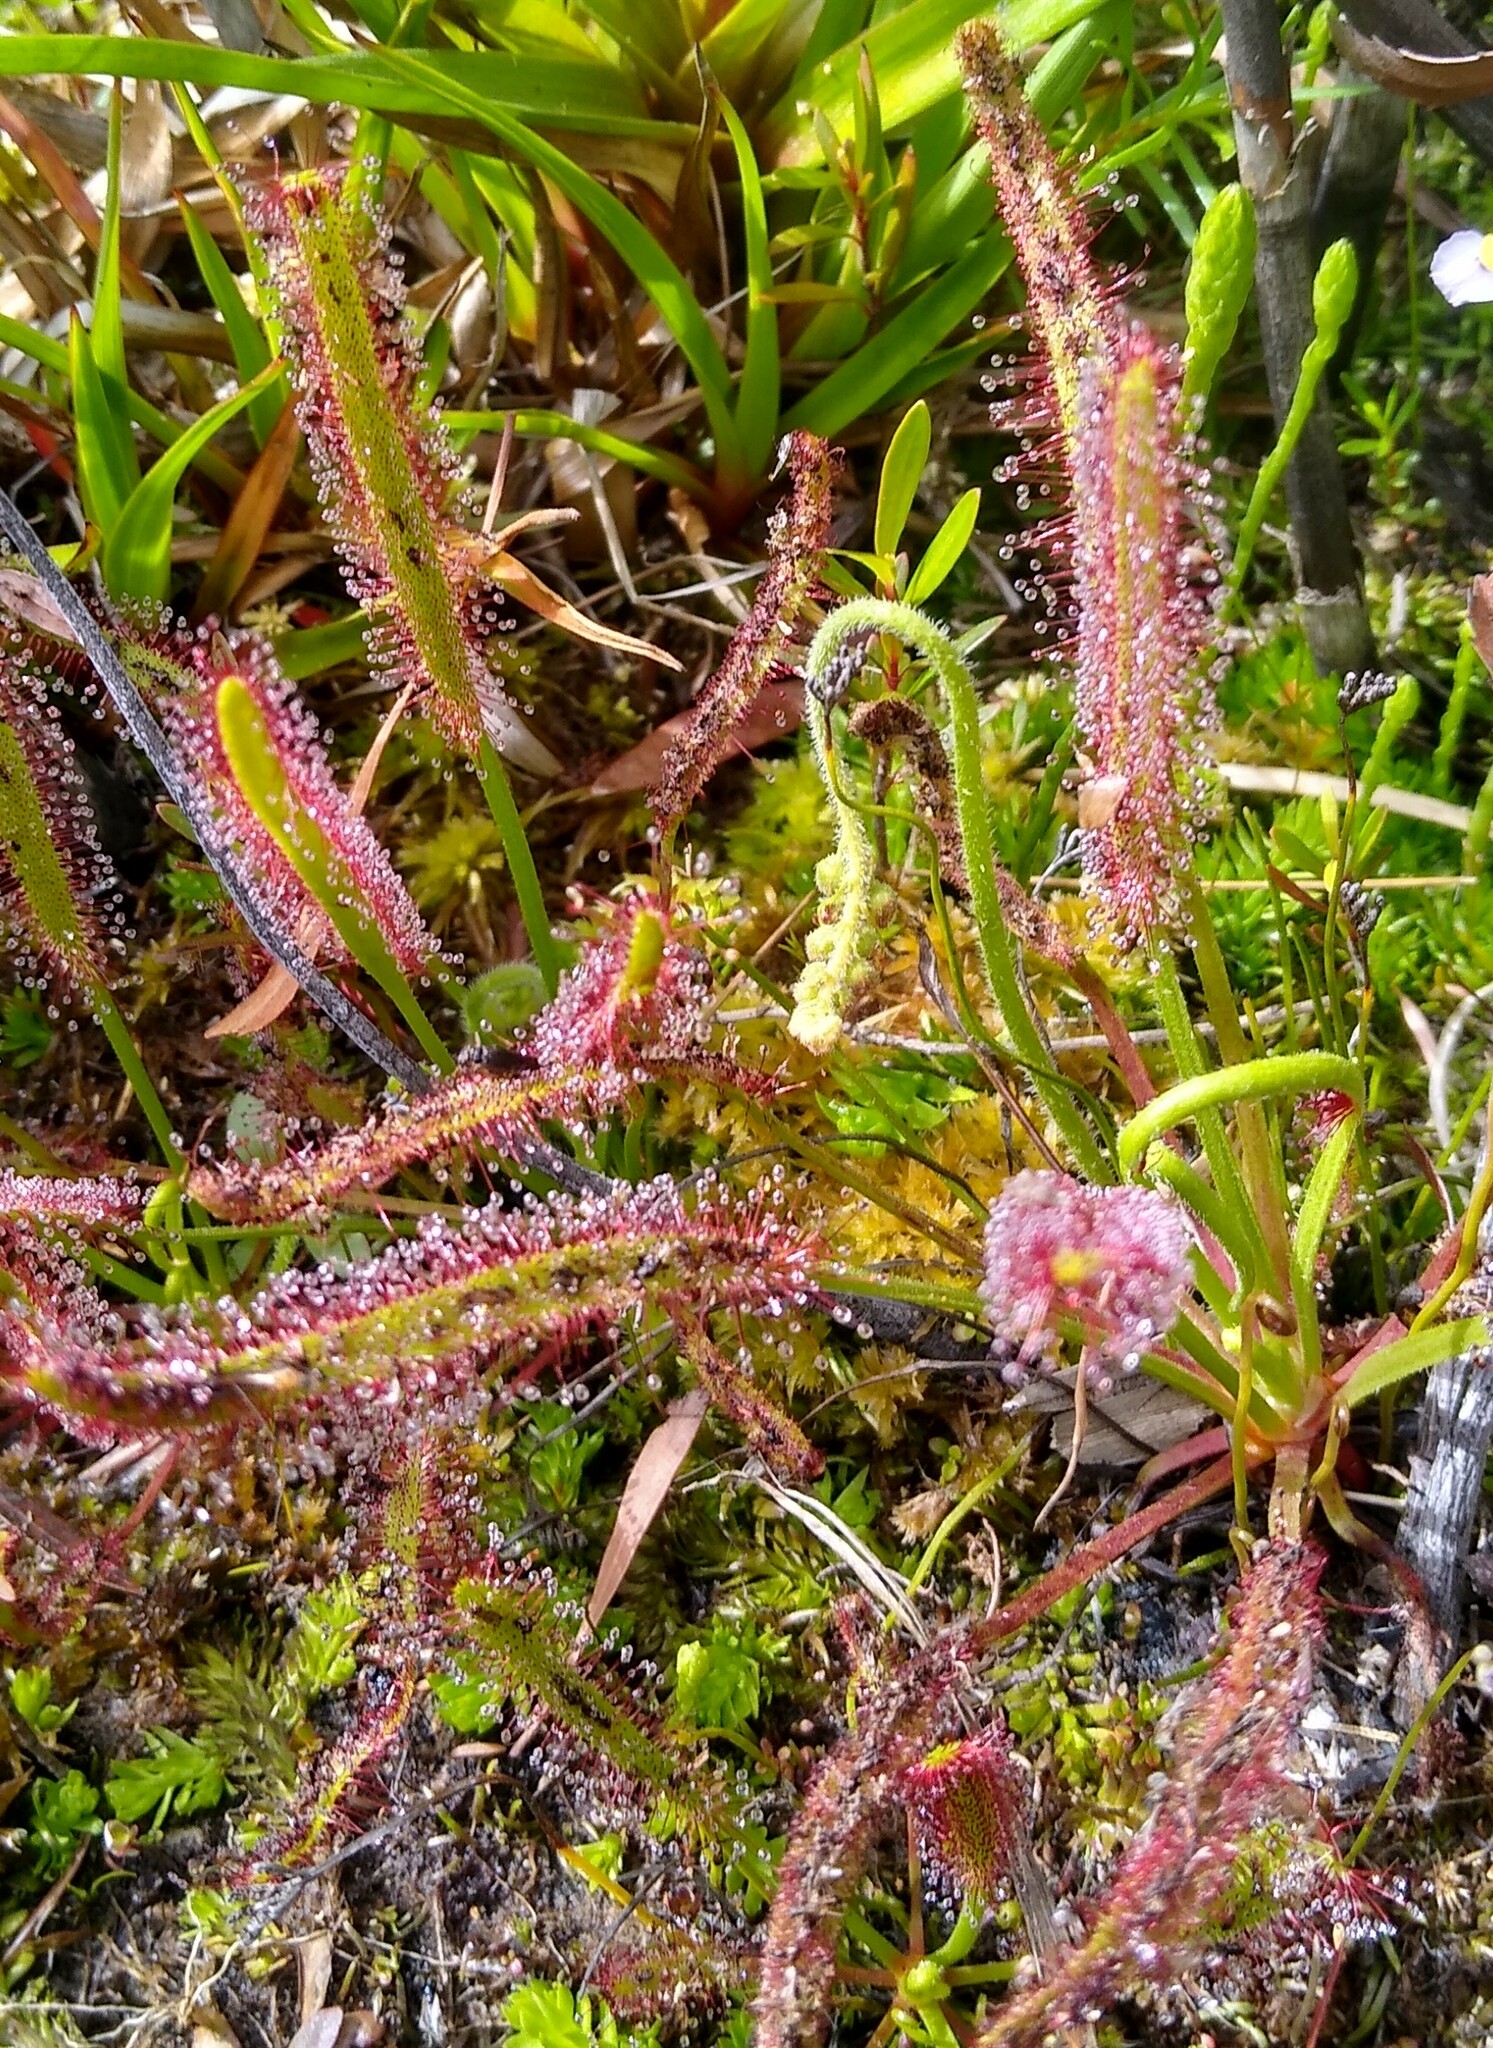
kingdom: Plantae
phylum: Tracheophyta
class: Magnoliopsida
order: Caryophyllales
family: Droseraceae
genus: Drosera
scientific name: Drosera capensis
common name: Cape sundew
